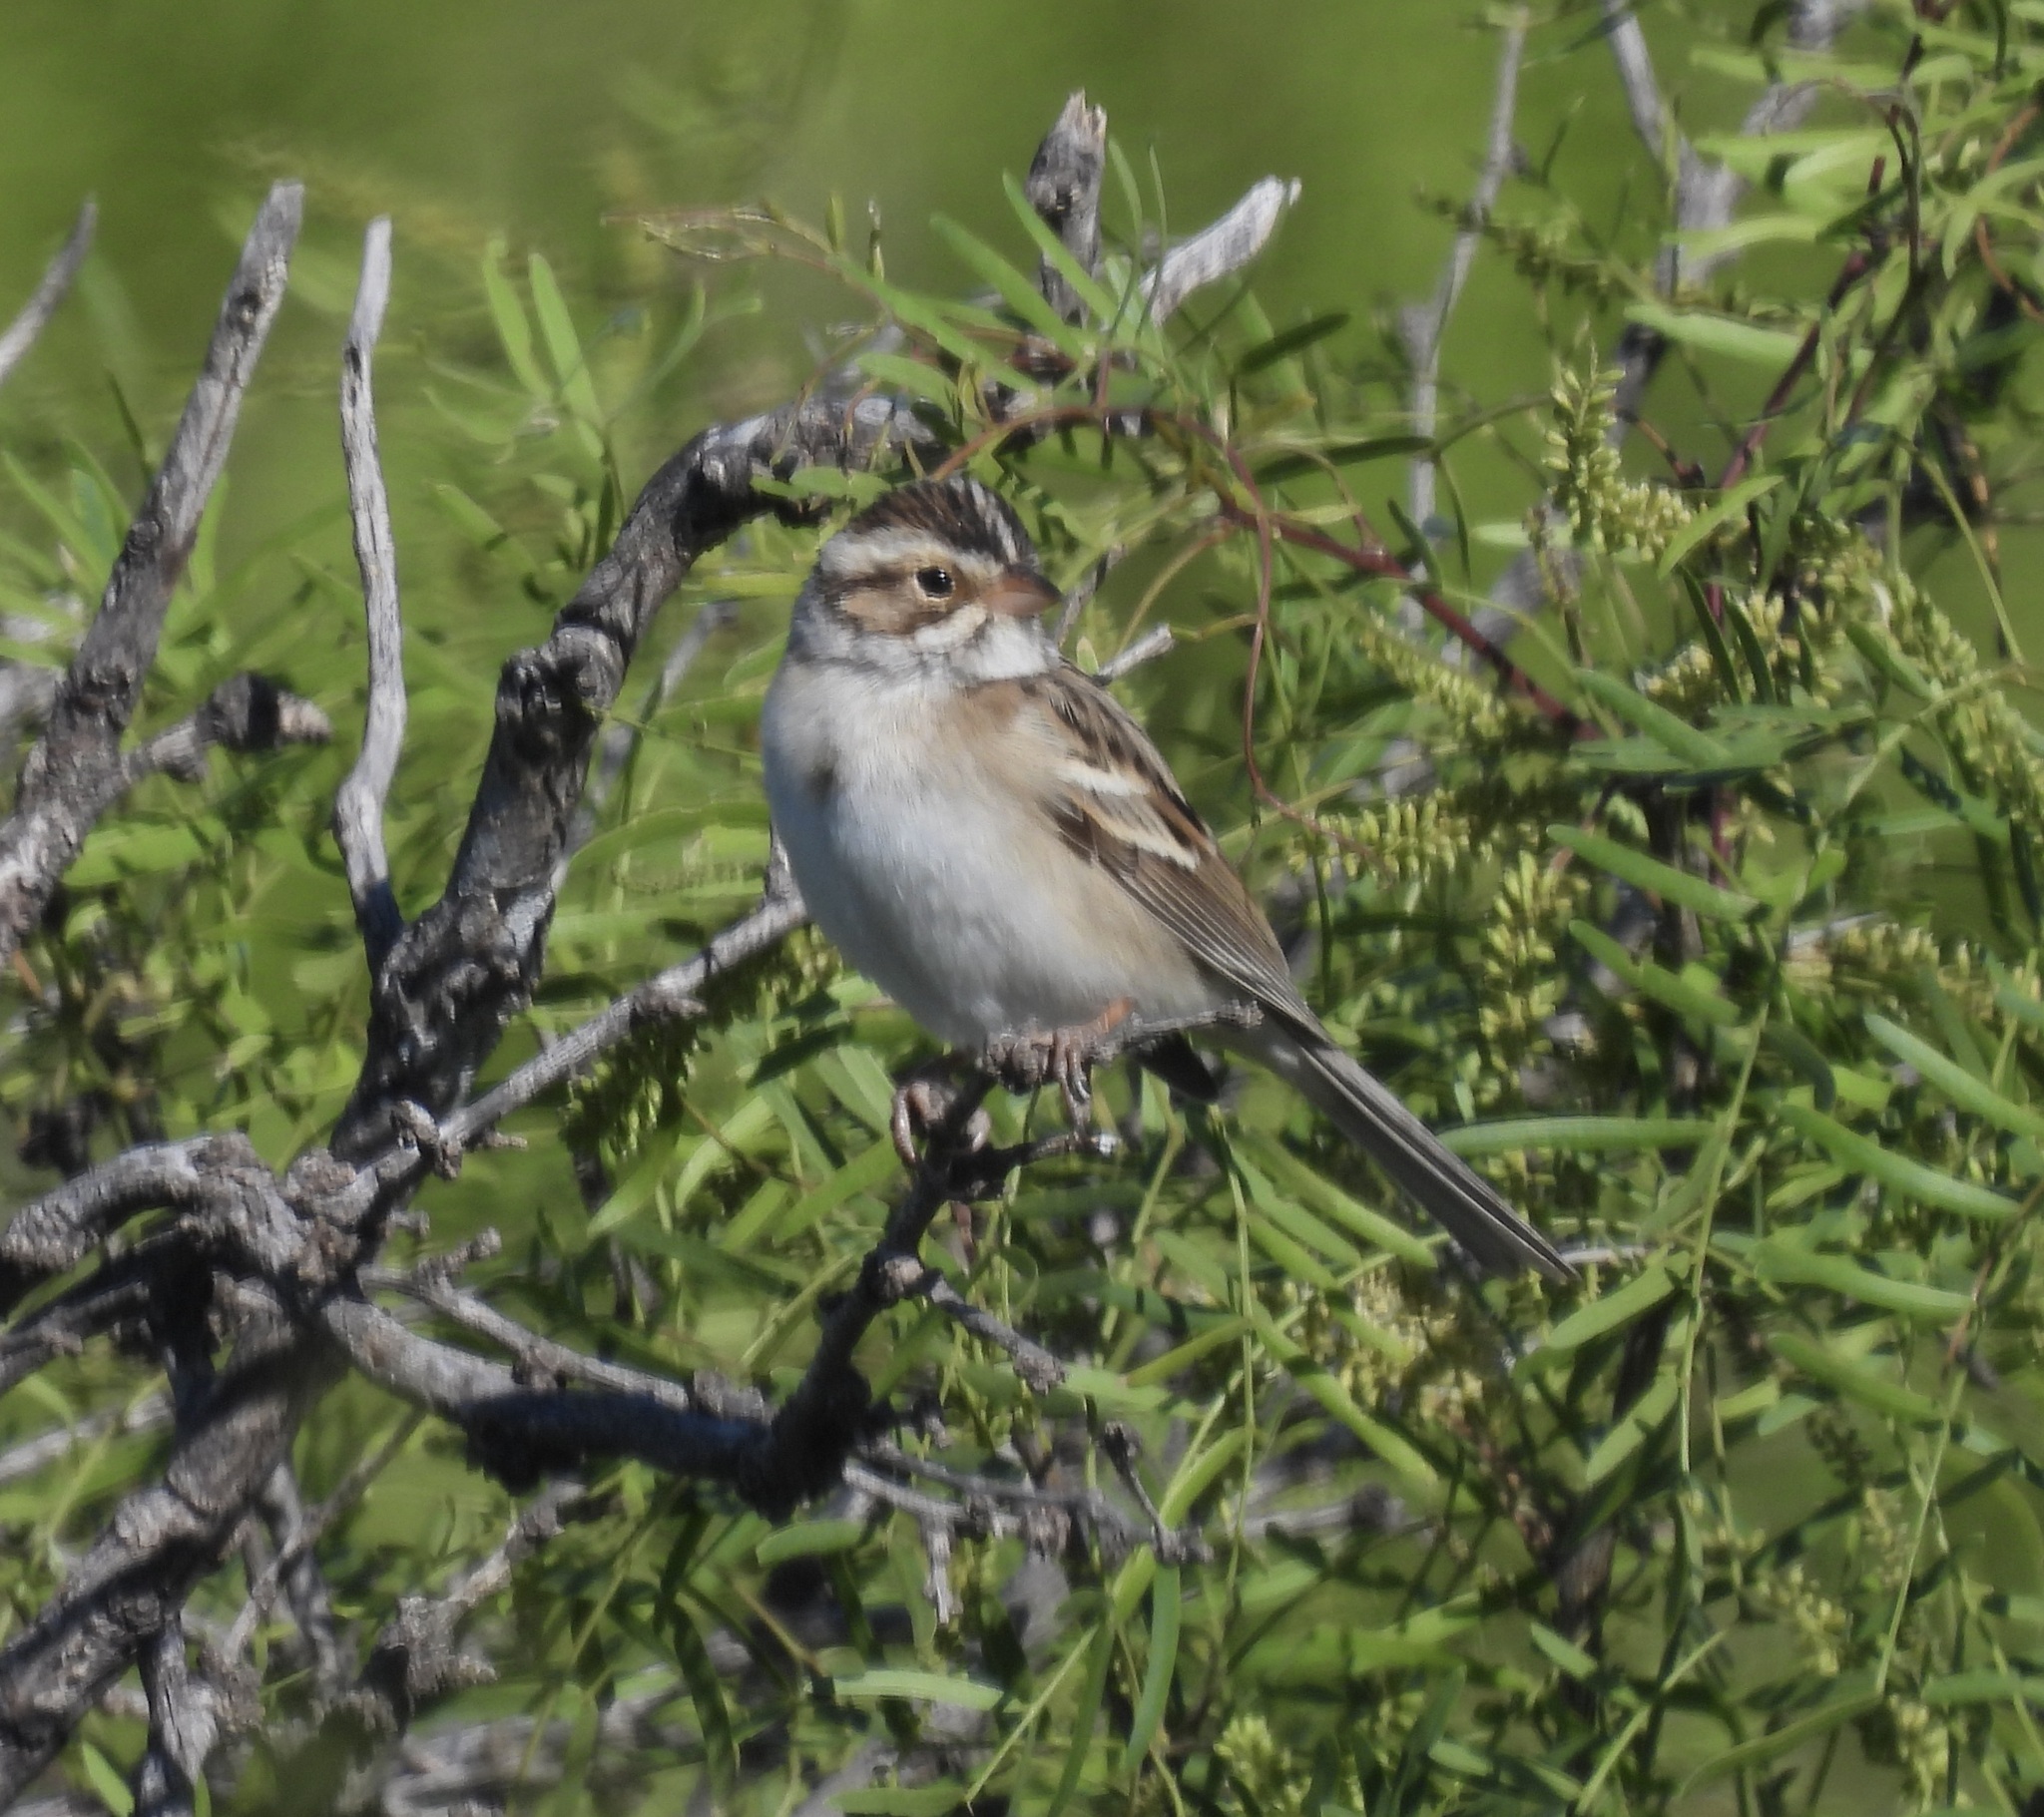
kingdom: Animalia
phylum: Chordata
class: Aves
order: Passeriformes
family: Passerellidae
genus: Spizella
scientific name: Spizella pallida
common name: Clay-colored sparrow
